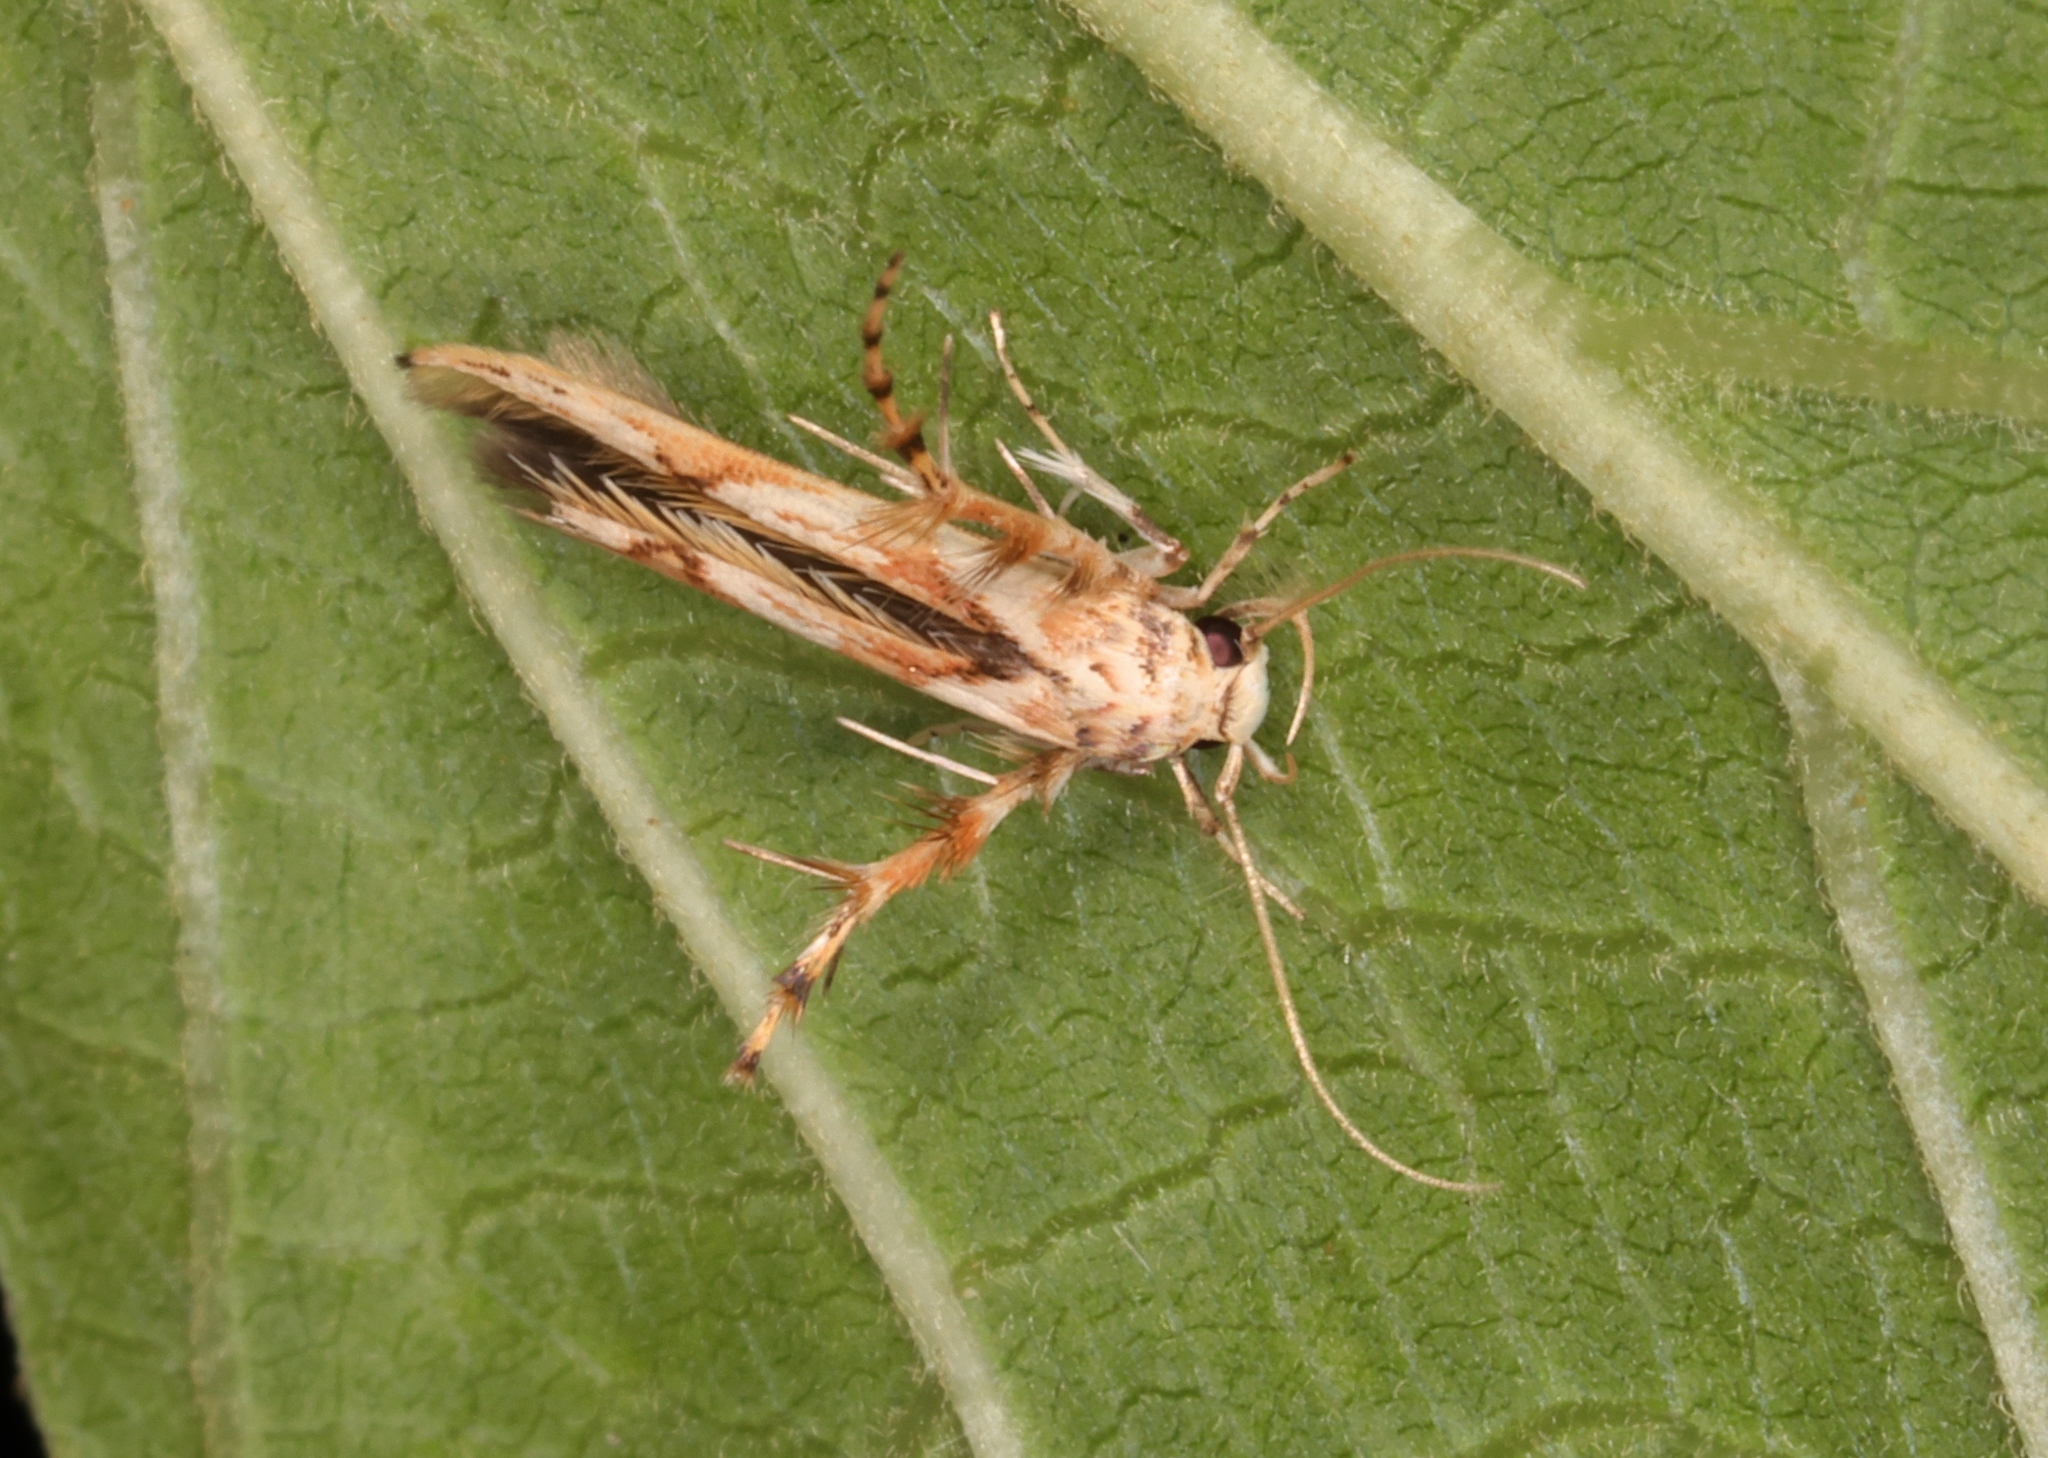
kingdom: Animalia
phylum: Arthropoda
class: Insecta
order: Lepidoptera
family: Stathmopodidae
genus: Stathmopoda
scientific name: Stathmopoda stimulata
